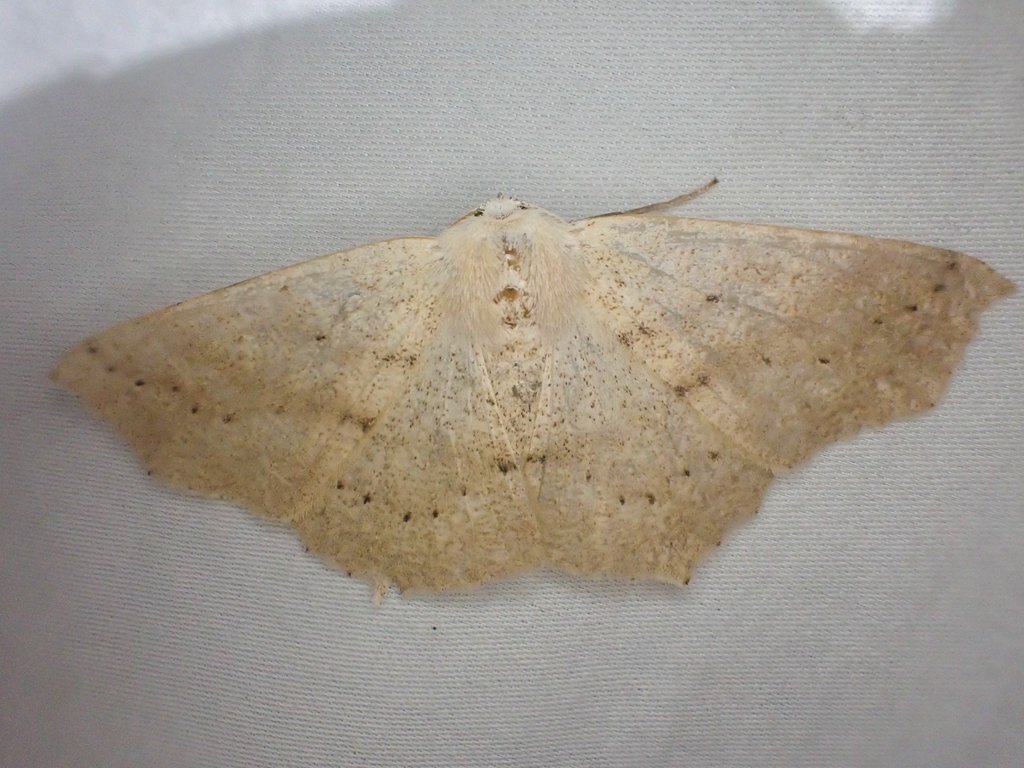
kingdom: Animalia
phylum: Arthropoda
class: Insecta
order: Lepidoptera
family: Geometridae
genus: Sabulodes
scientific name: Sabulodes aegrotata
